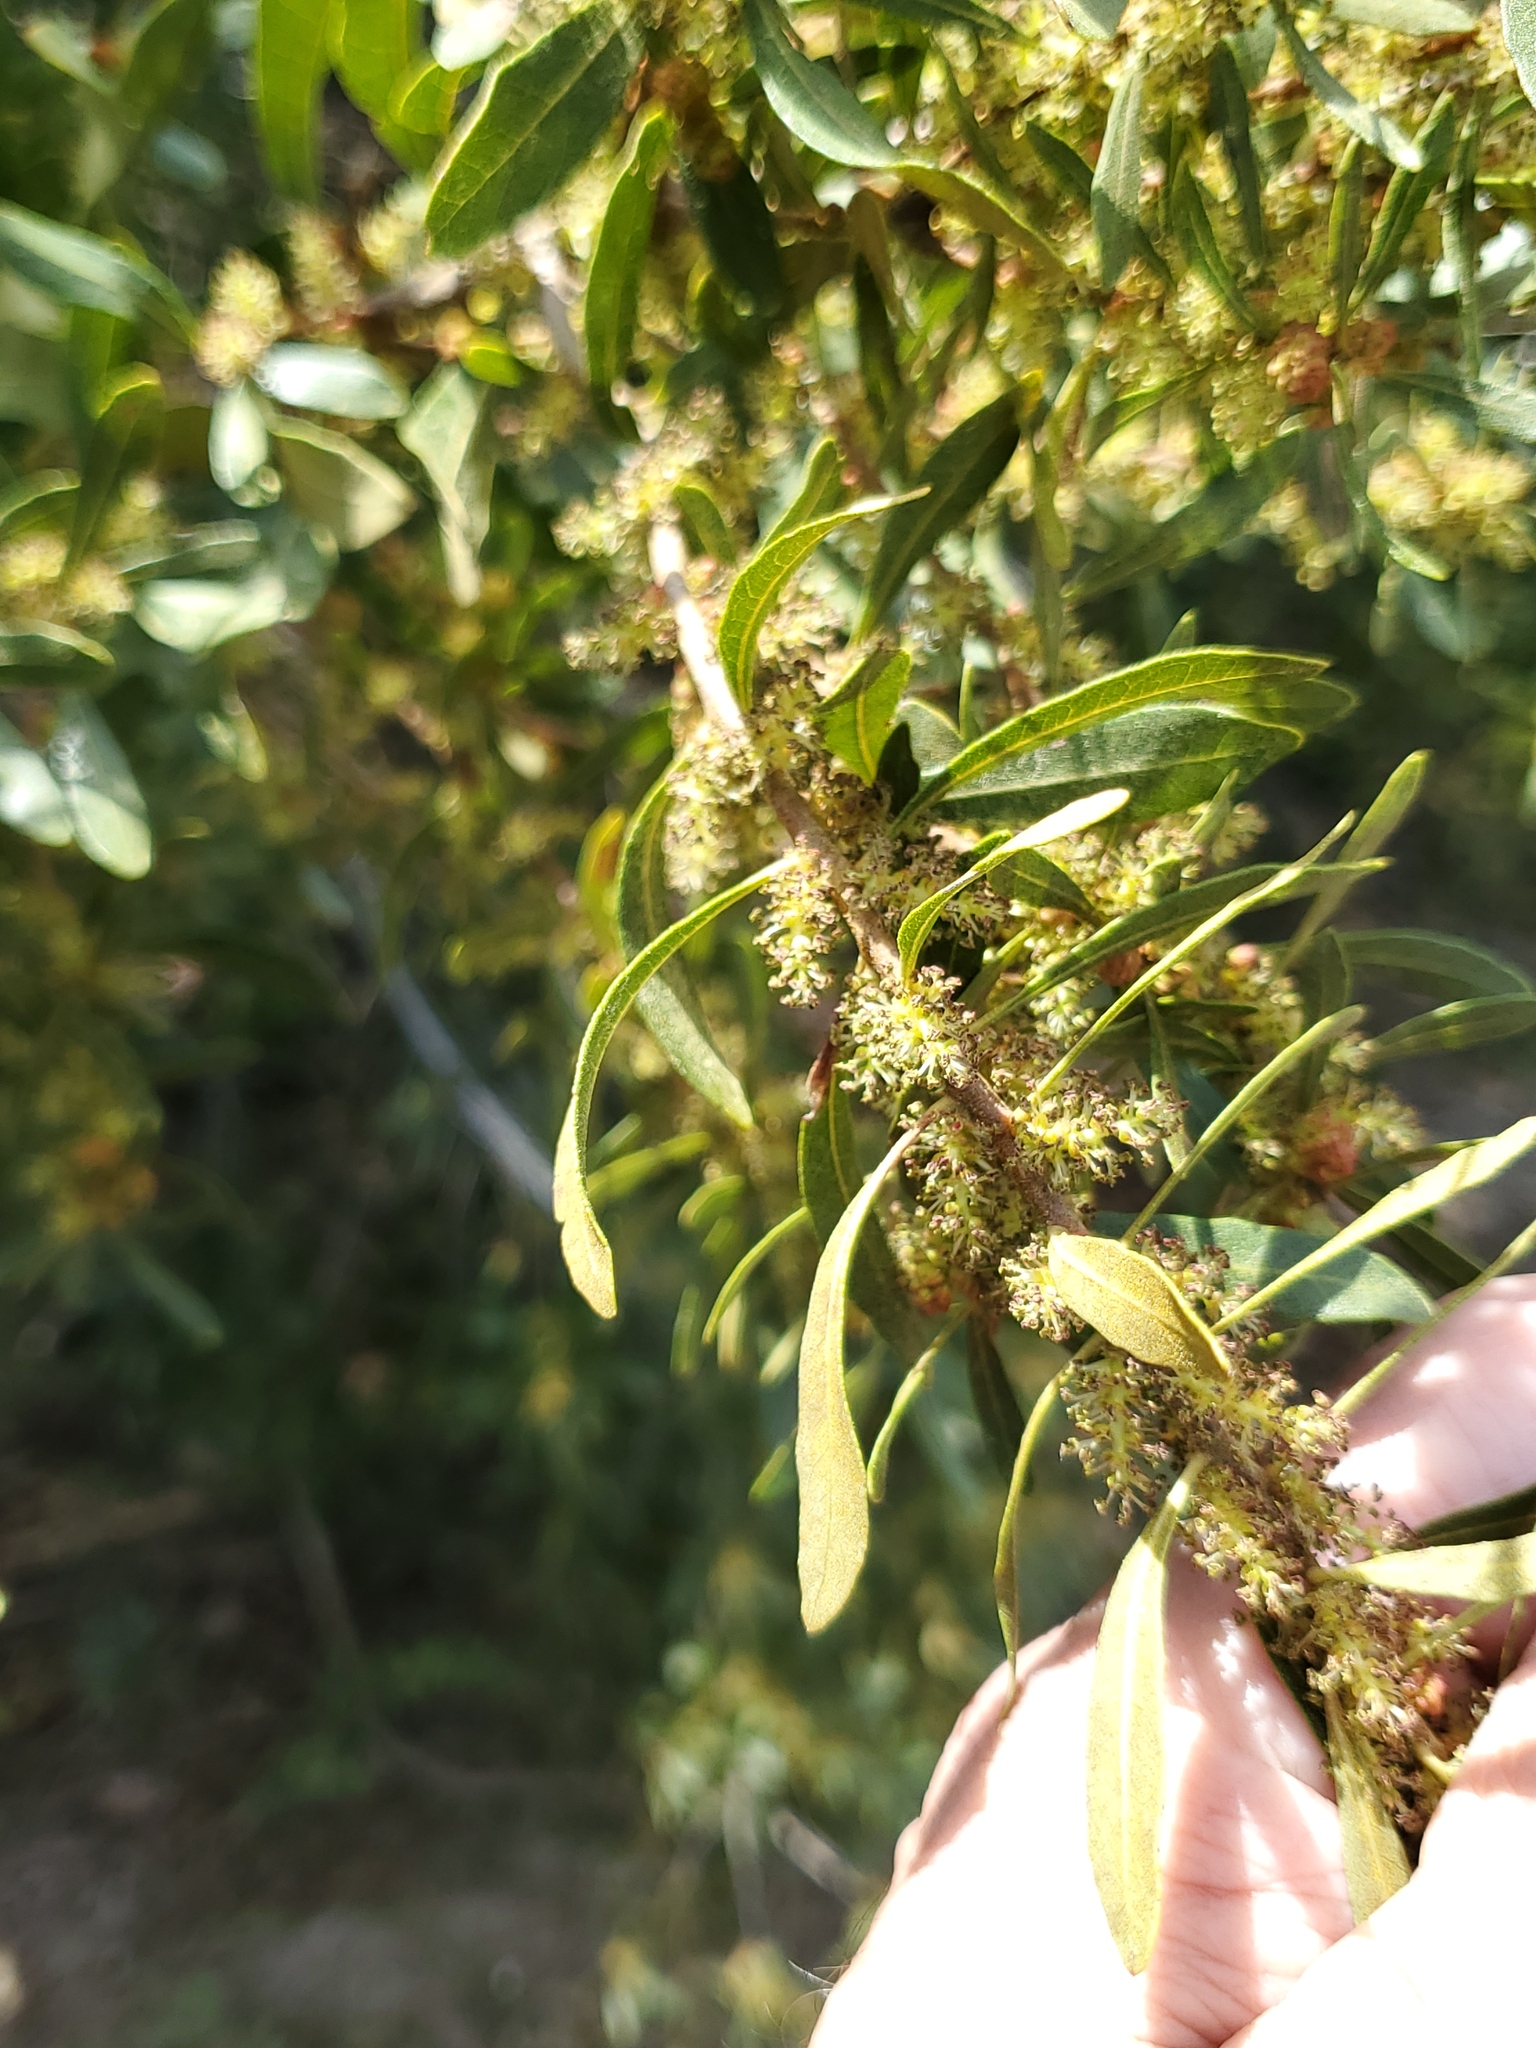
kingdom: Plantae
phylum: Tracheophyta
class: Magnoliopsida
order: Fagales
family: Myricaceae
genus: Morella
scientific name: Morella cerifera
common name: Wax myrtle
